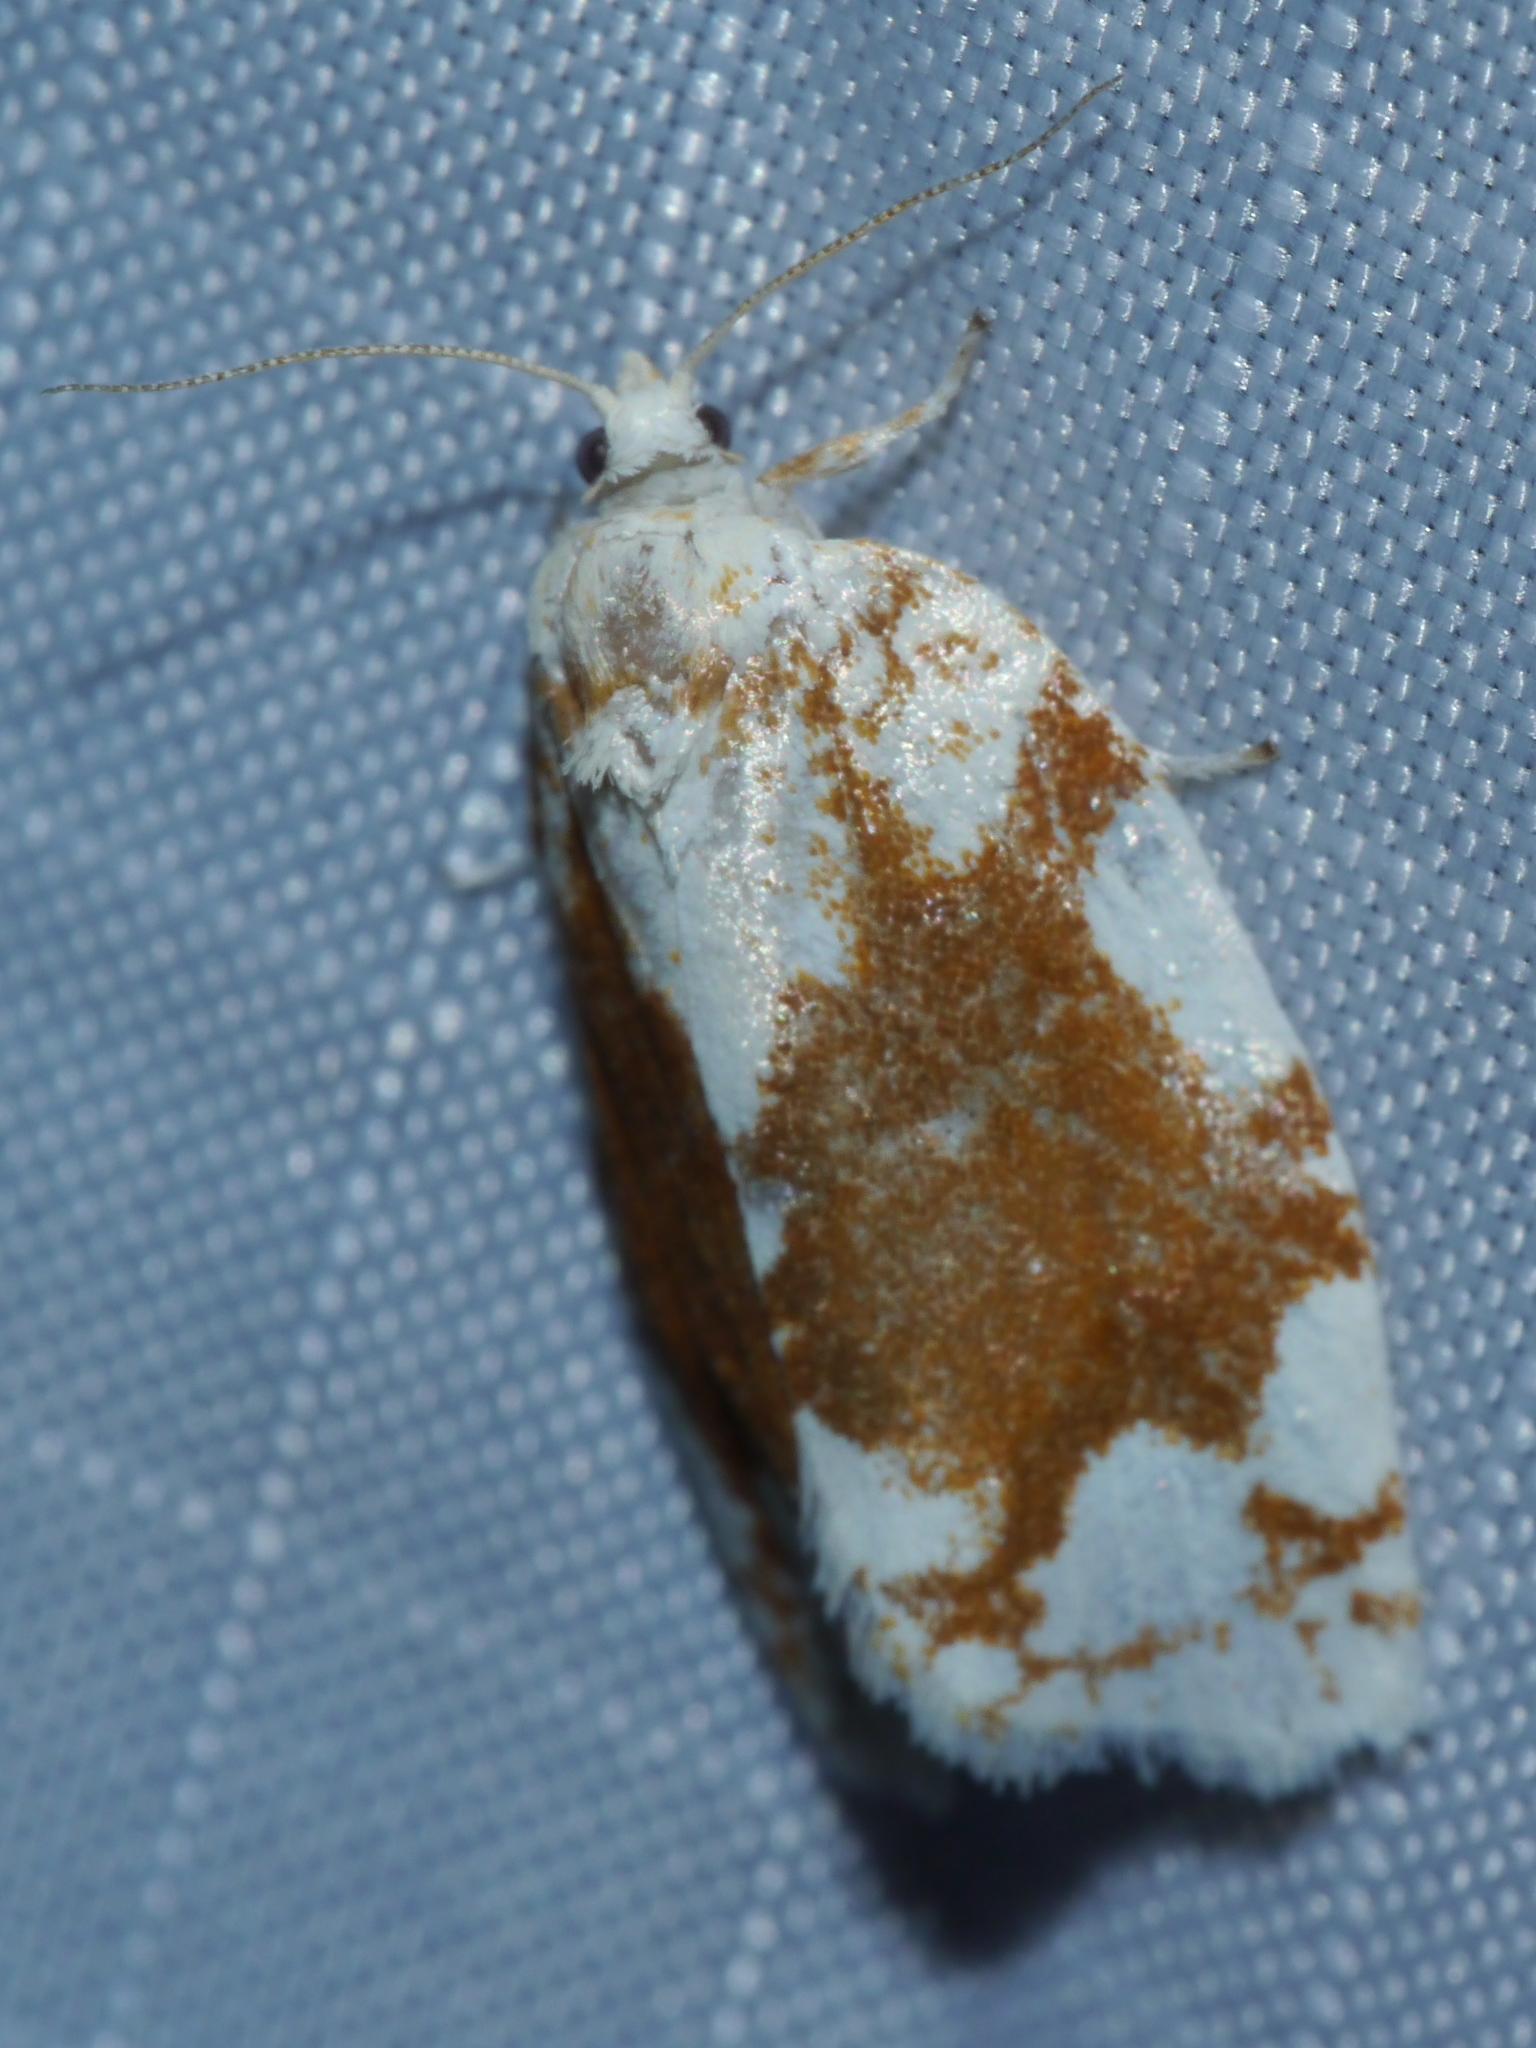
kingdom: Animalia
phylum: Arthropoda
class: Insecta
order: Lepidoptera
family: Tortricidae
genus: Argyrotaenia
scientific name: Argyrotaenia alisellana
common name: White-spotted leafroller moth
